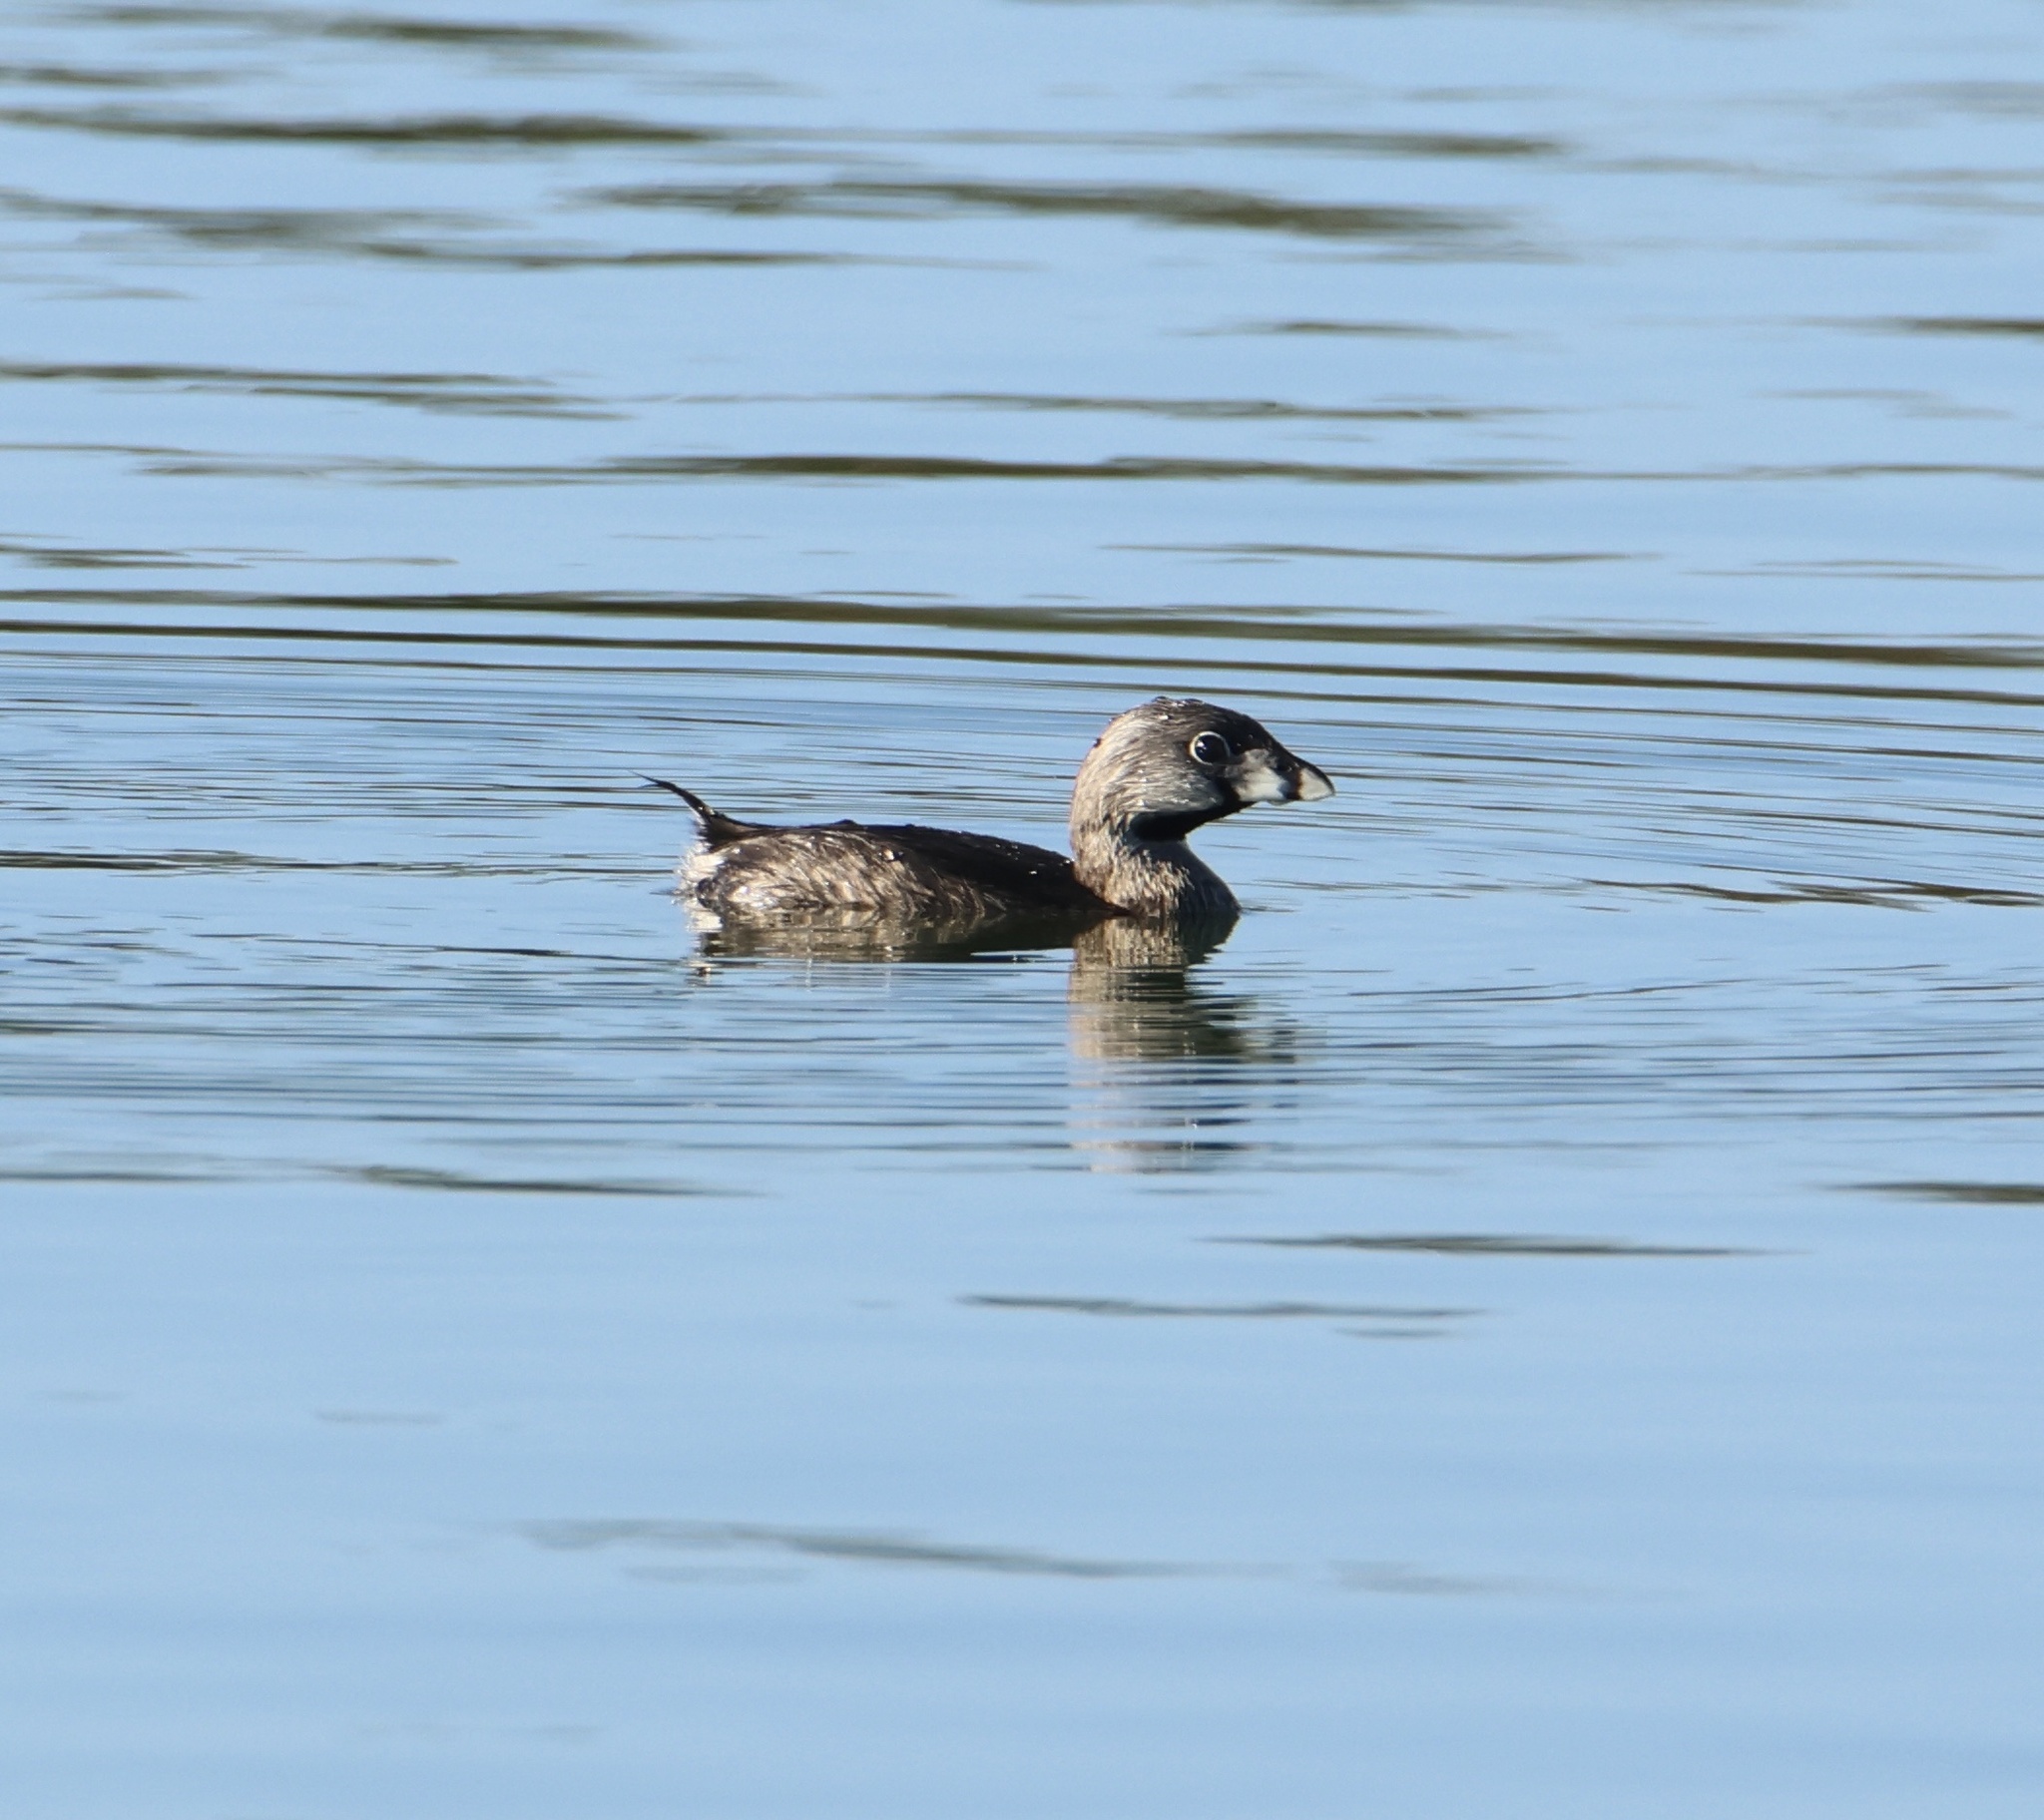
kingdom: Animalia
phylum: Chordata
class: Aves
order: Podicipediformes
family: Podicipedidae
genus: Podilymbus
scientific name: Podilymbus podiceps
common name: Pied-billed grebe
